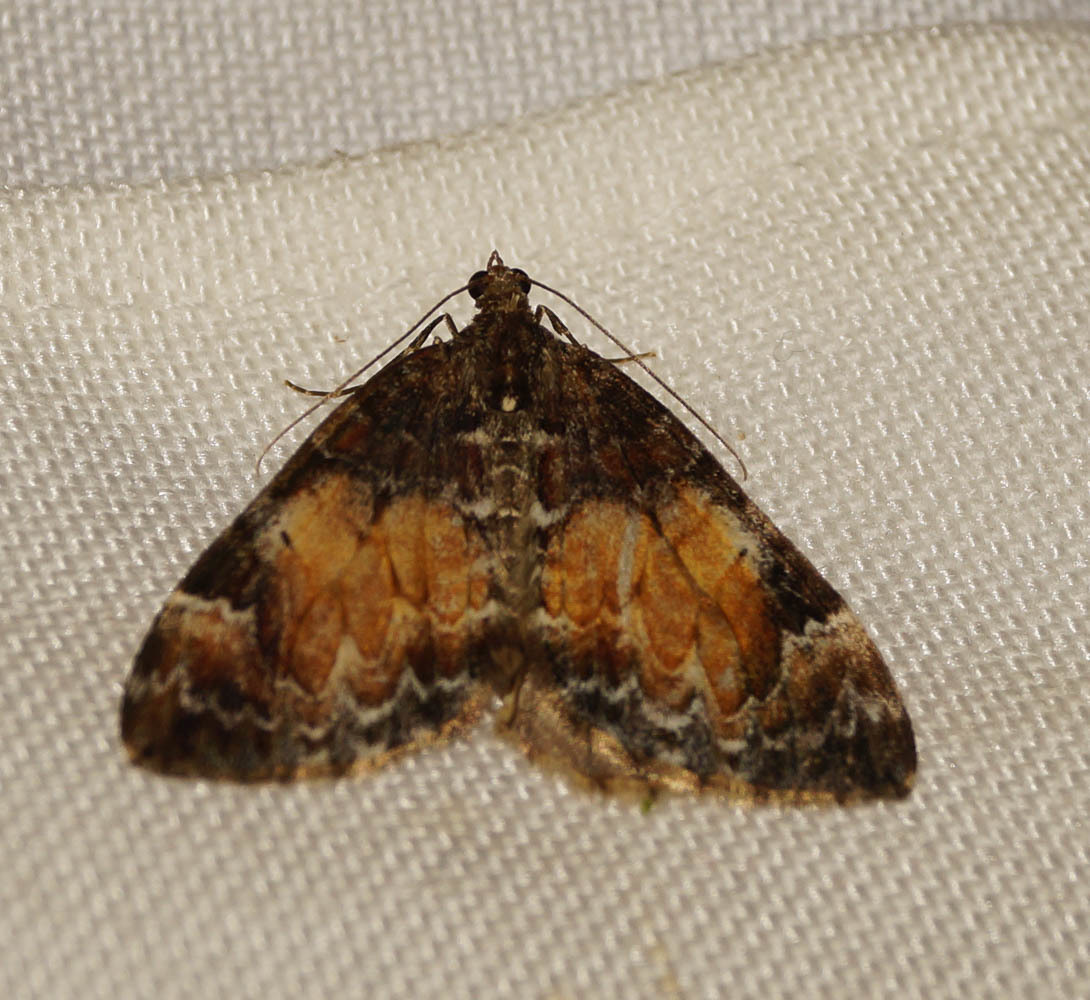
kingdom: Animalia
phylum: Arthropoda
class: Insecta
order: Lepidoptera
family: Geometridae
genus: Dysstroma
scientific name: Dysstroma truncata
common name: Common marbled carpet
